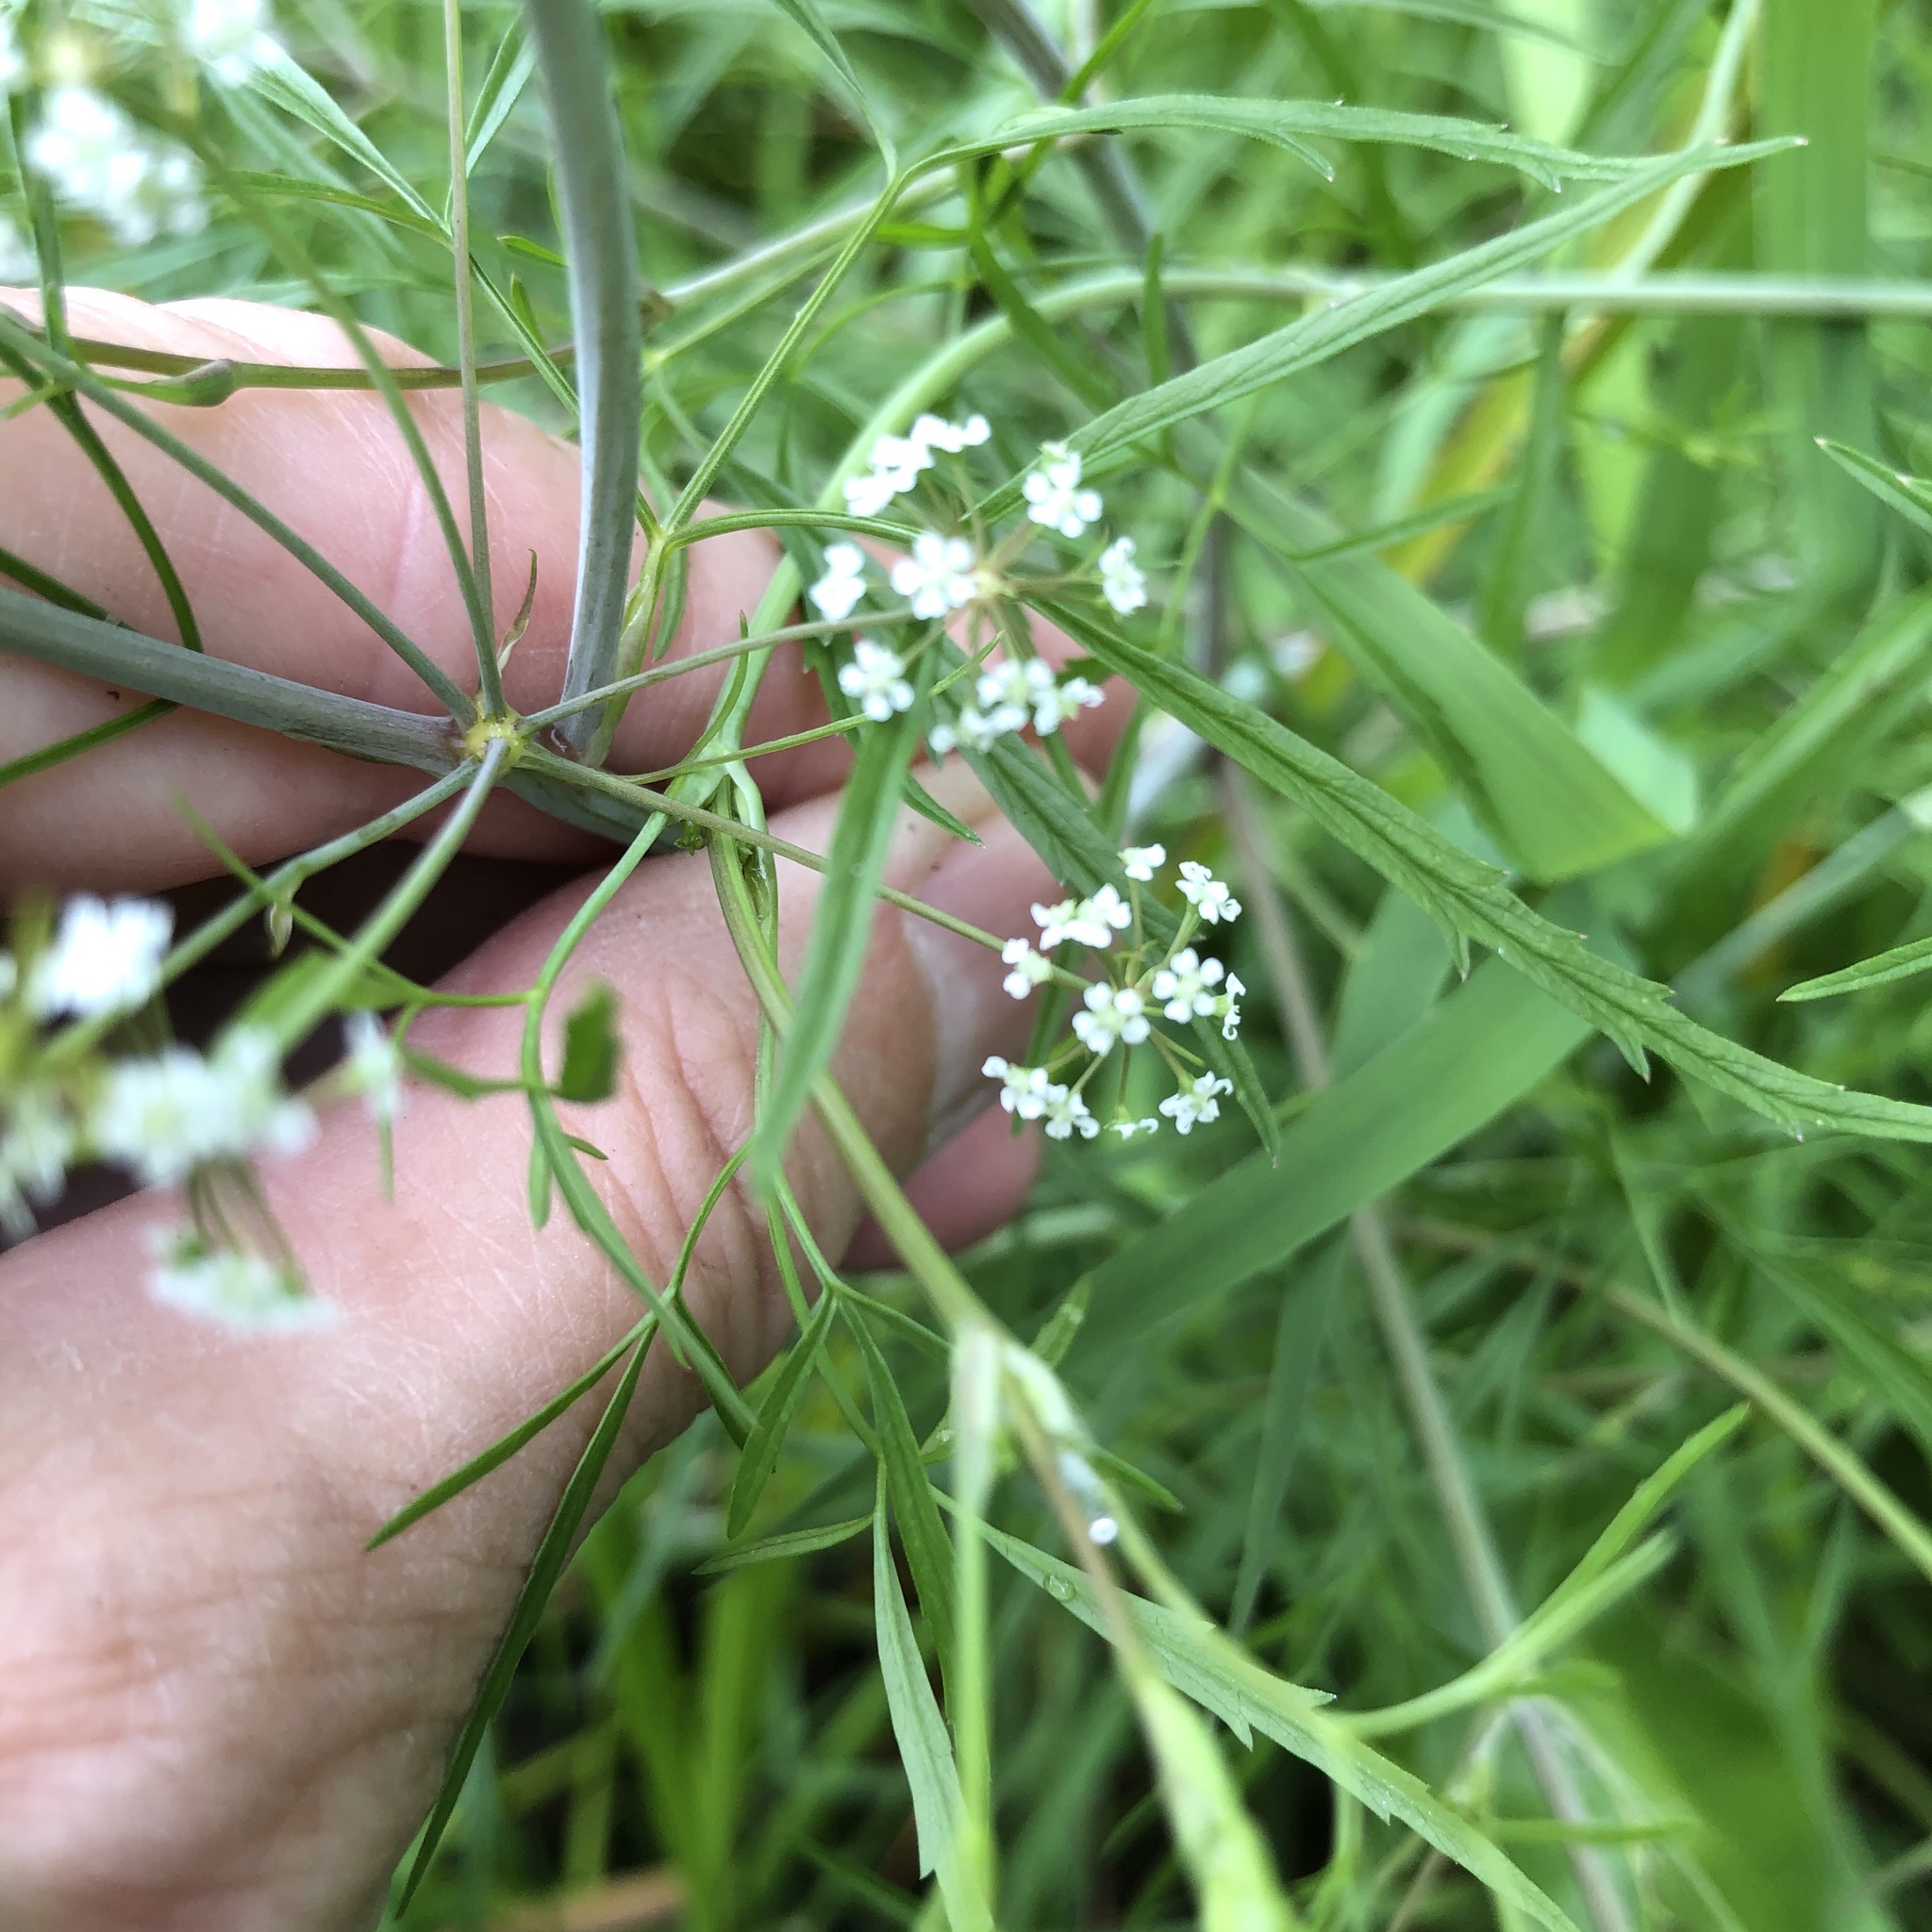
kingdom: Plantae
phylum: Tracheophyta
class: Magnoliopsida
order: Apiales
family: Apiaceae
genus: Cicuta
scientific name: Cicuta bulbifera
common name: Bulb-bearing water-hemlock
